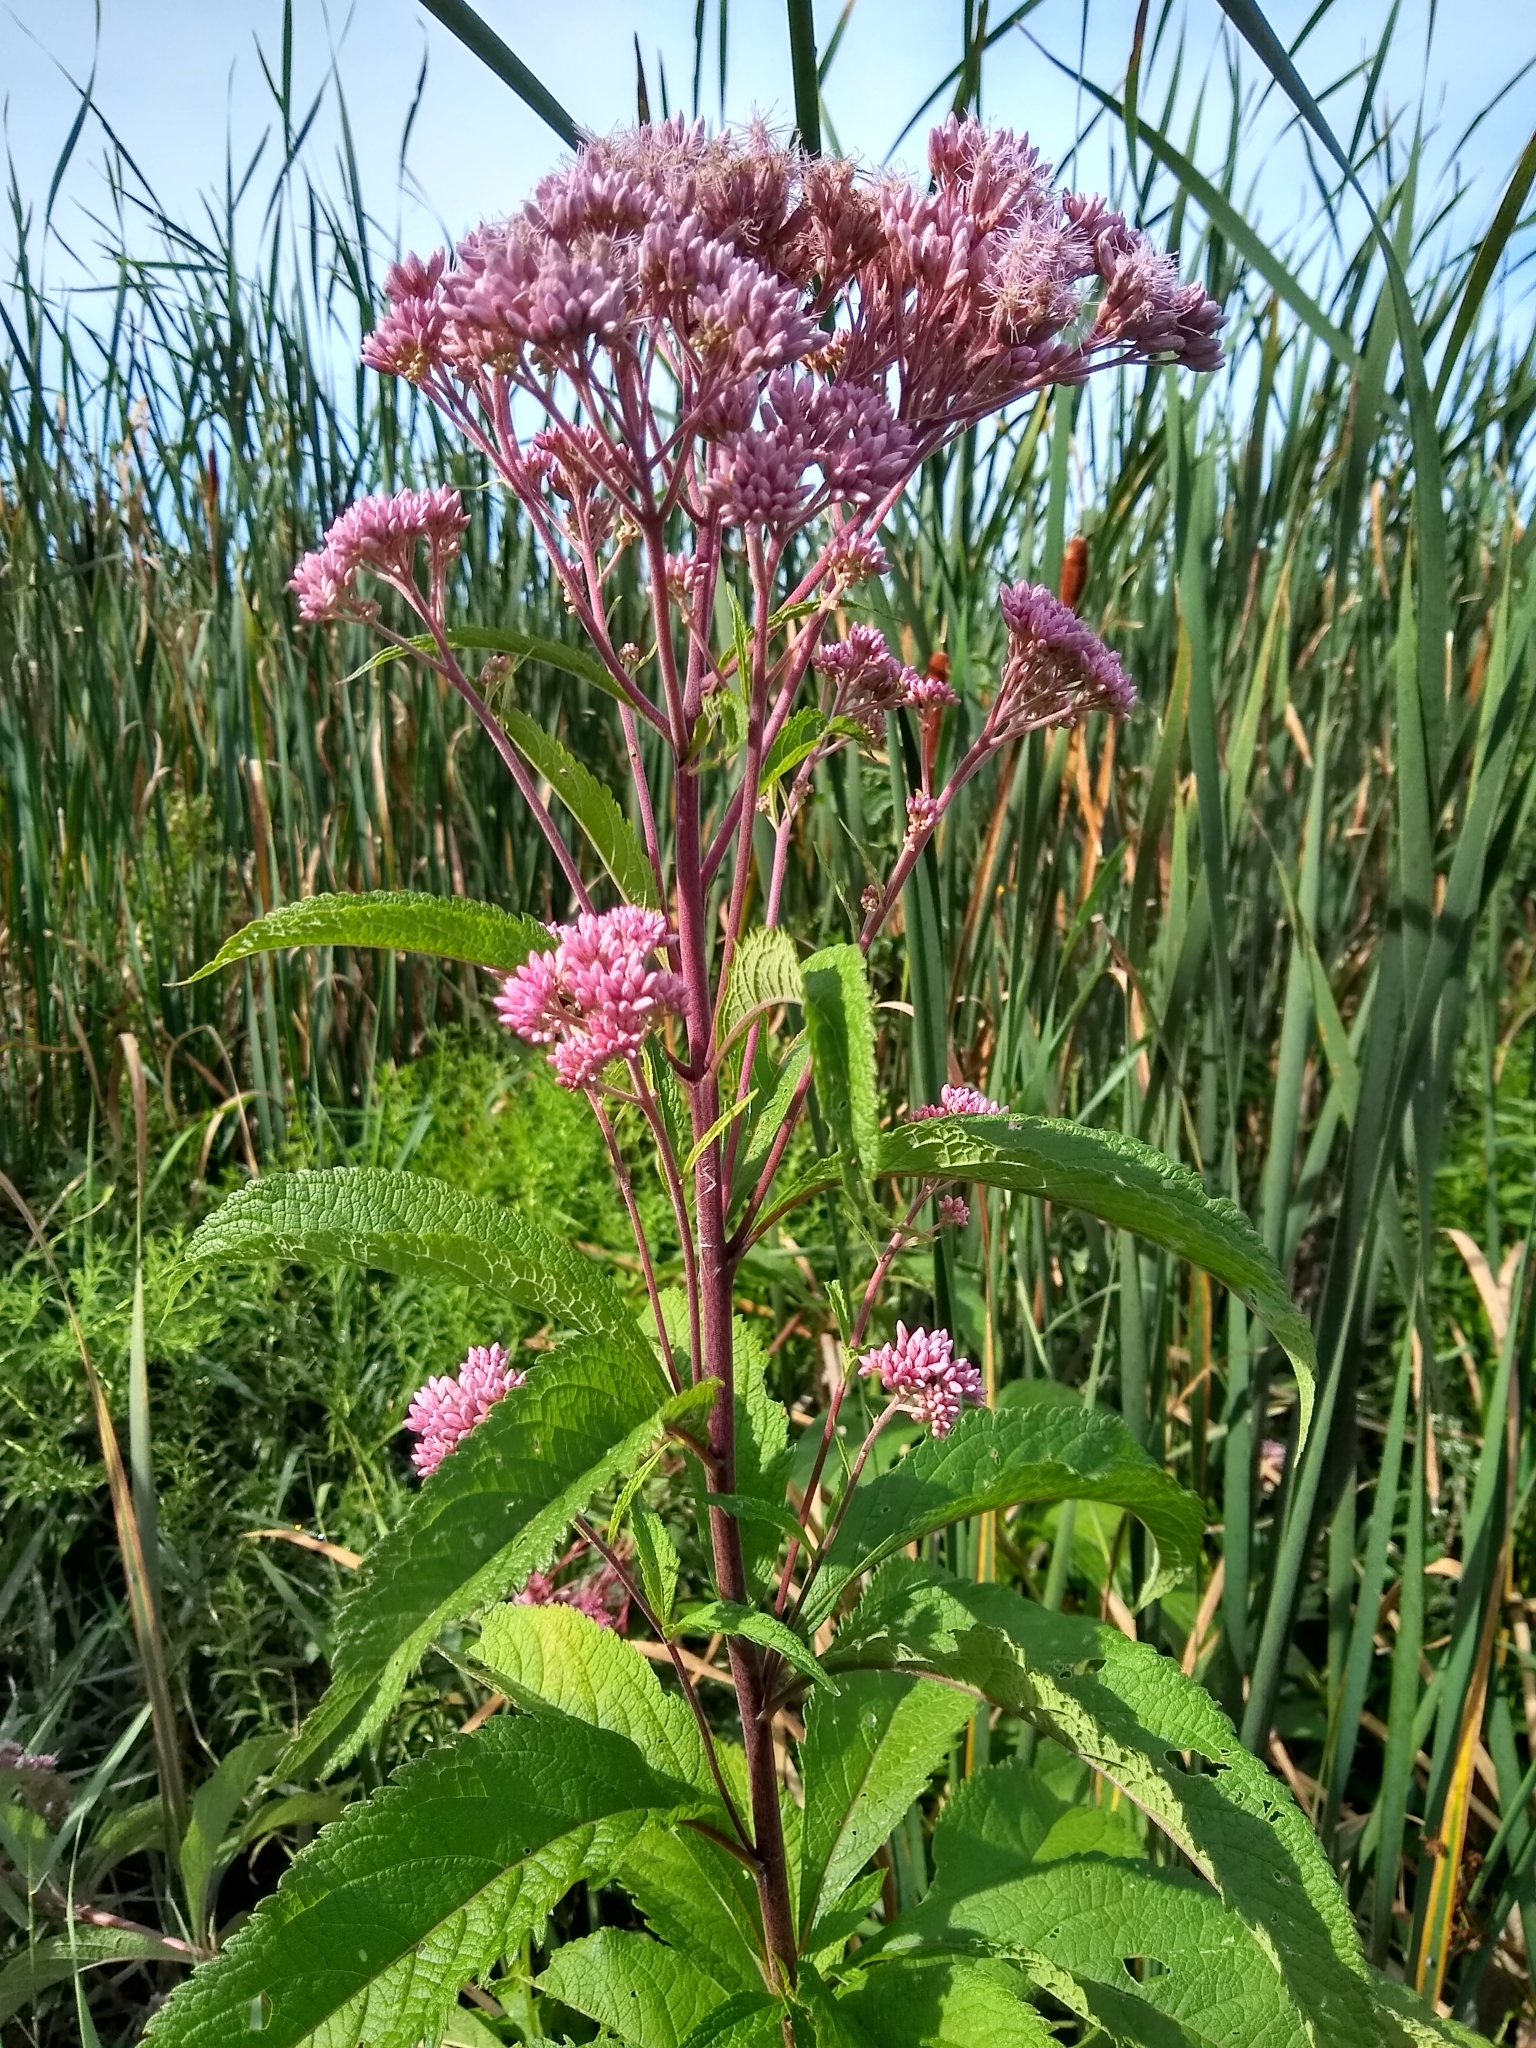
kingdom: Plantae
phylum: Tracheophyta
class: Magnoliopsida
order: Asterales
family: Asteraceae
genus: Eutrochium
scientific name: Eutrochium maculatum
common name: Spotted joe pye weed
